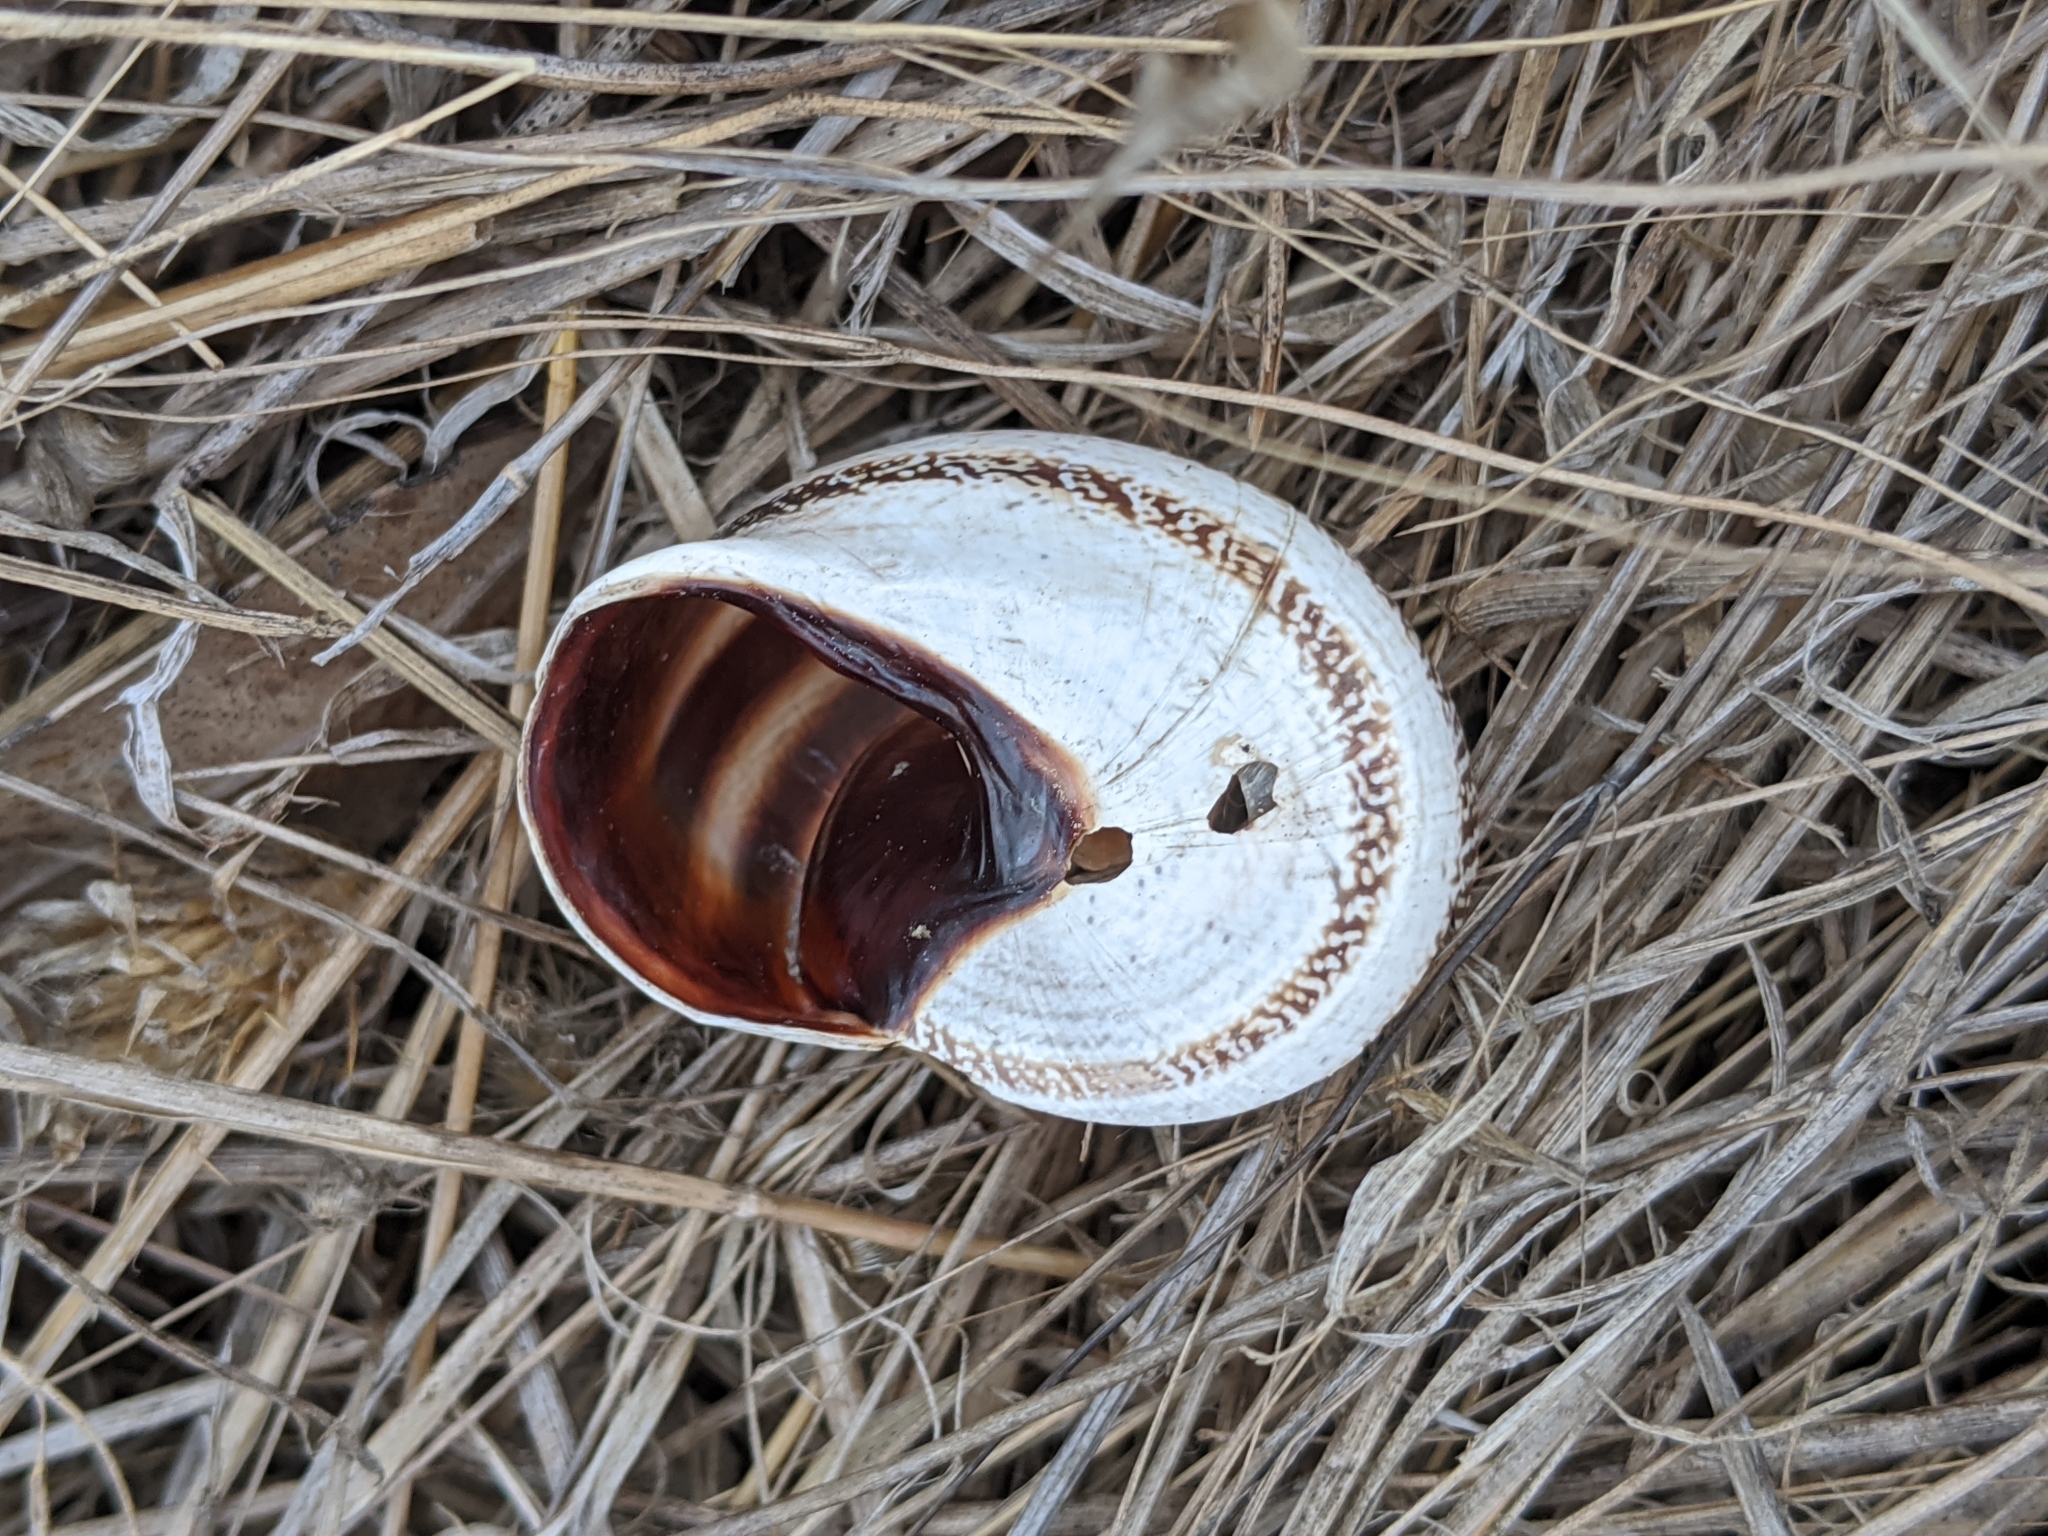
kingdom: Animalia
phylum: Mollusca
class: Gastropoda
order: Stylommatophora
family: Helicidae
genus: Otala
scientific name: Otala lactea
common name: Milk snail
